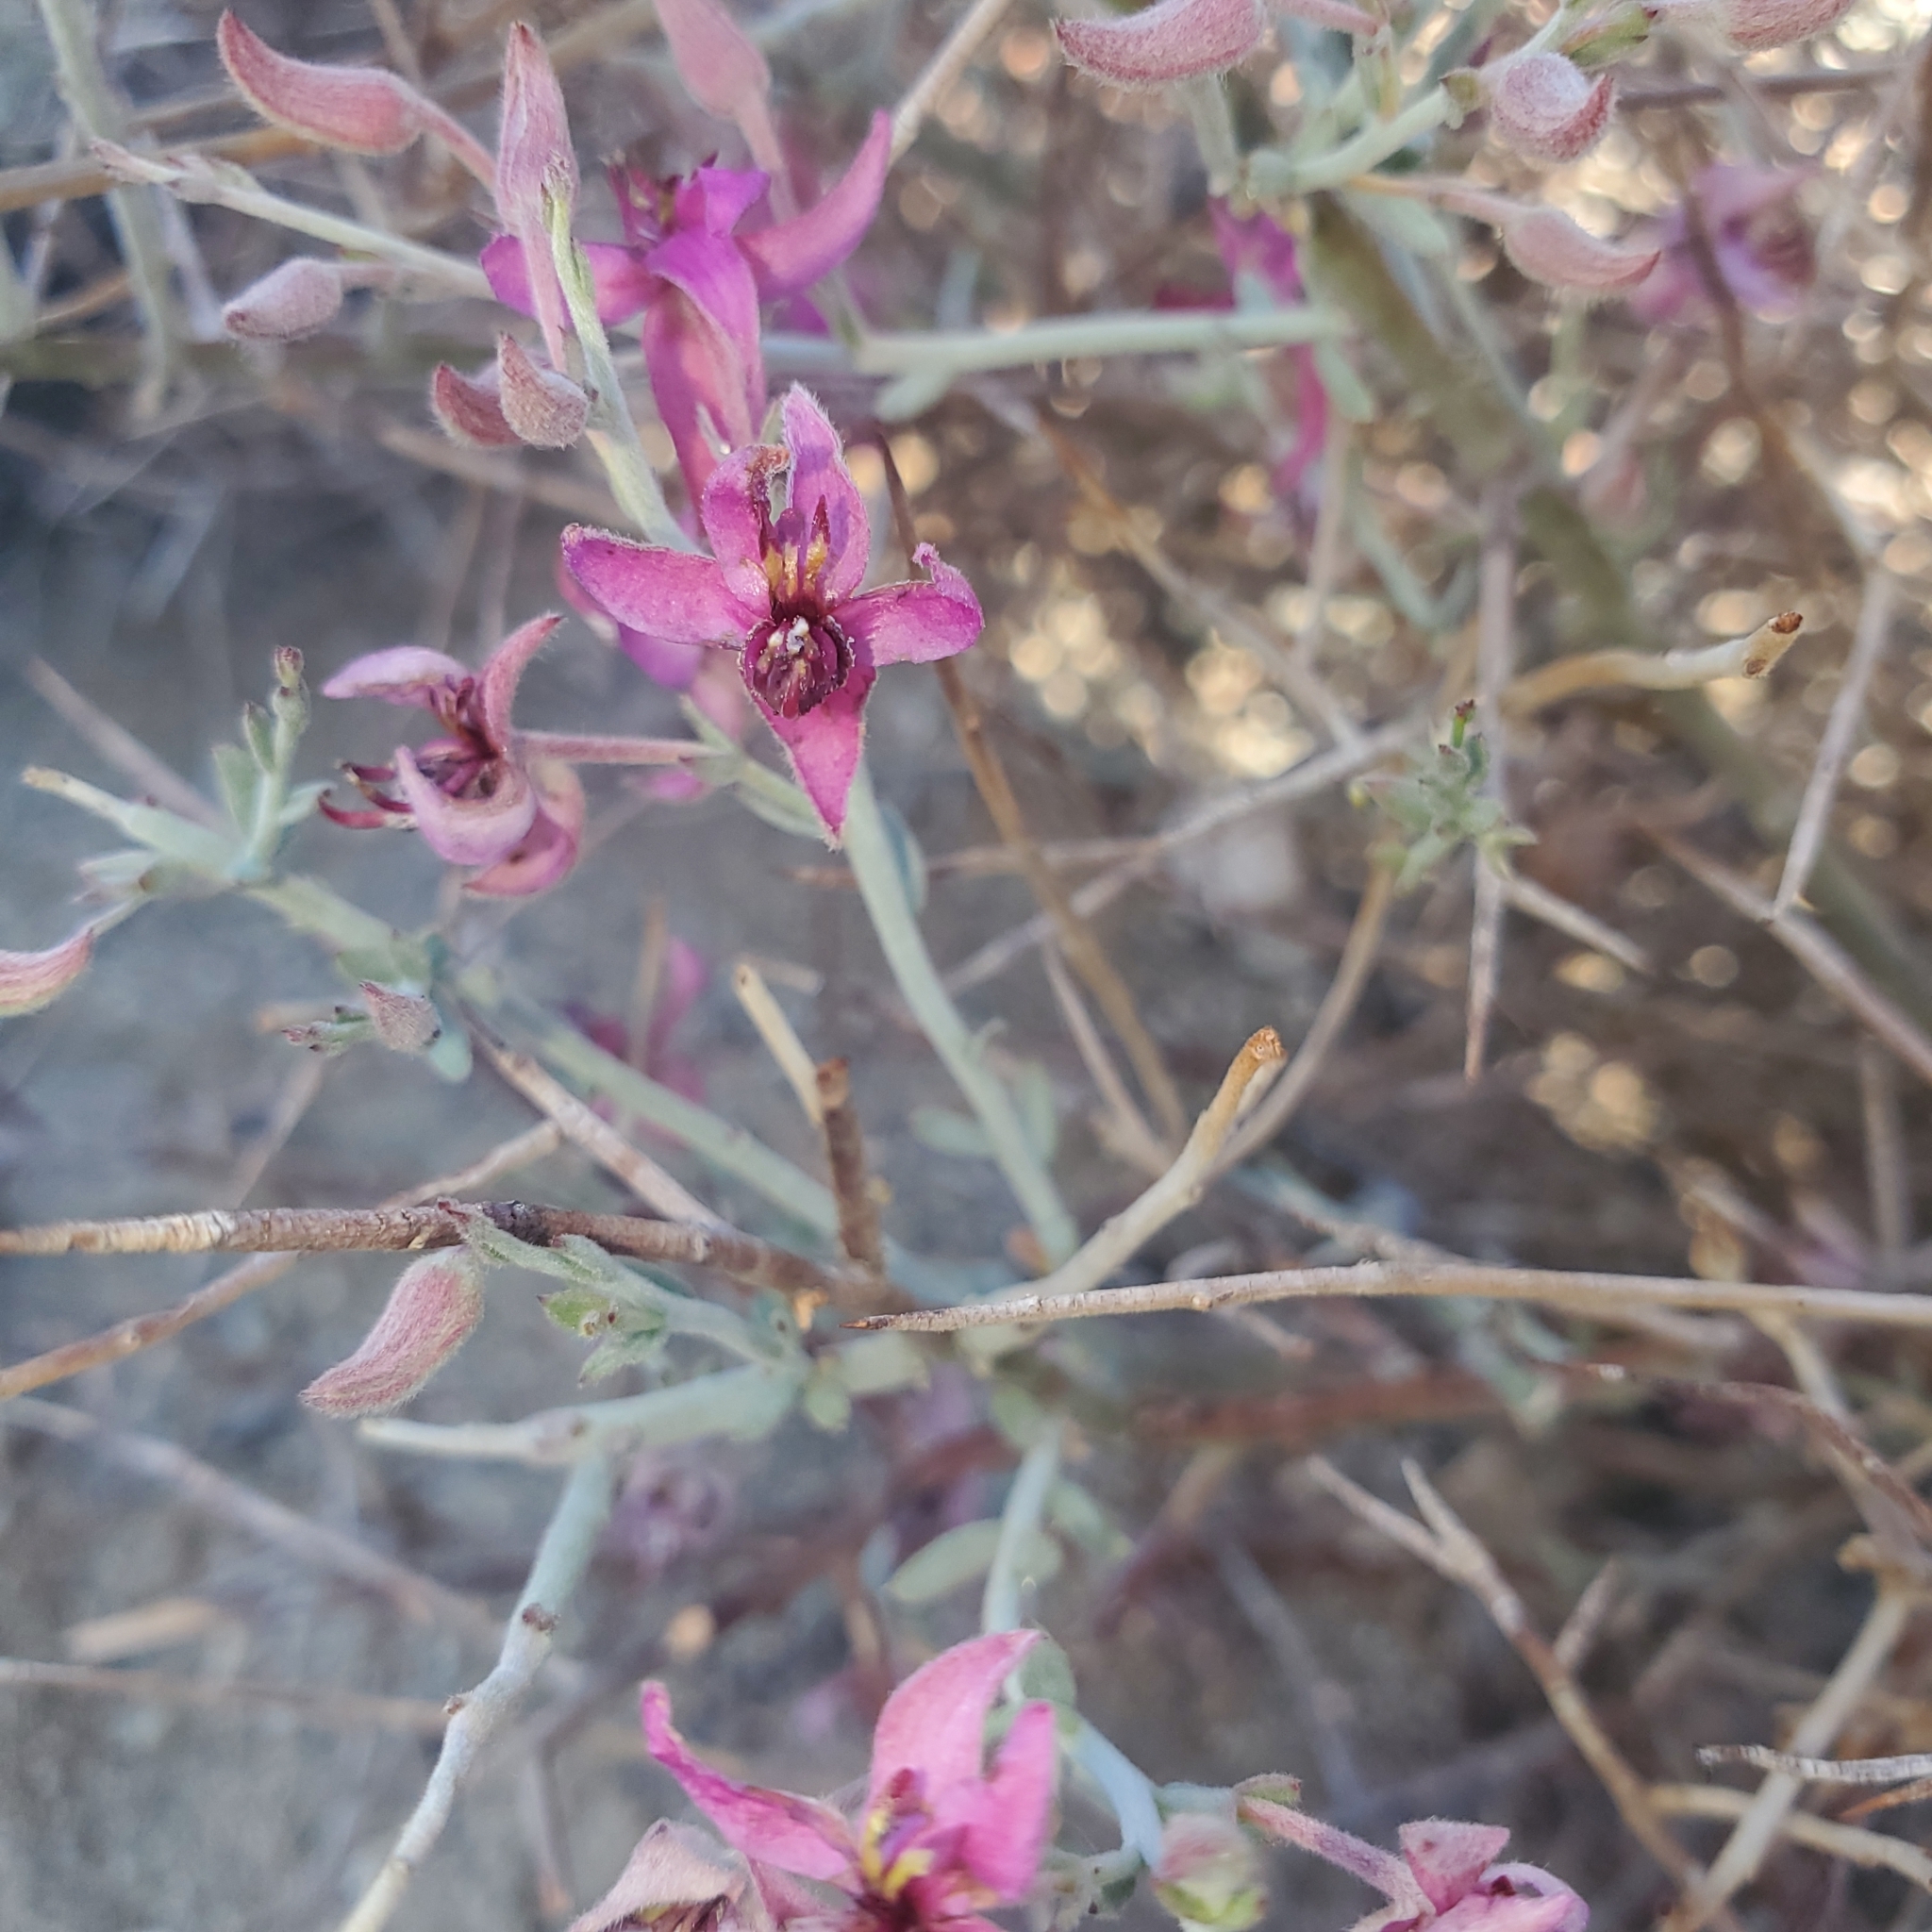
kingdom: Plantae
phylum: Tracheophyta
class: Magnoliopsida
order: Zygophyllales
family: Krameriaceae
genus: Krameria
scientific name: Krameria bicolor
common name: White ratany
